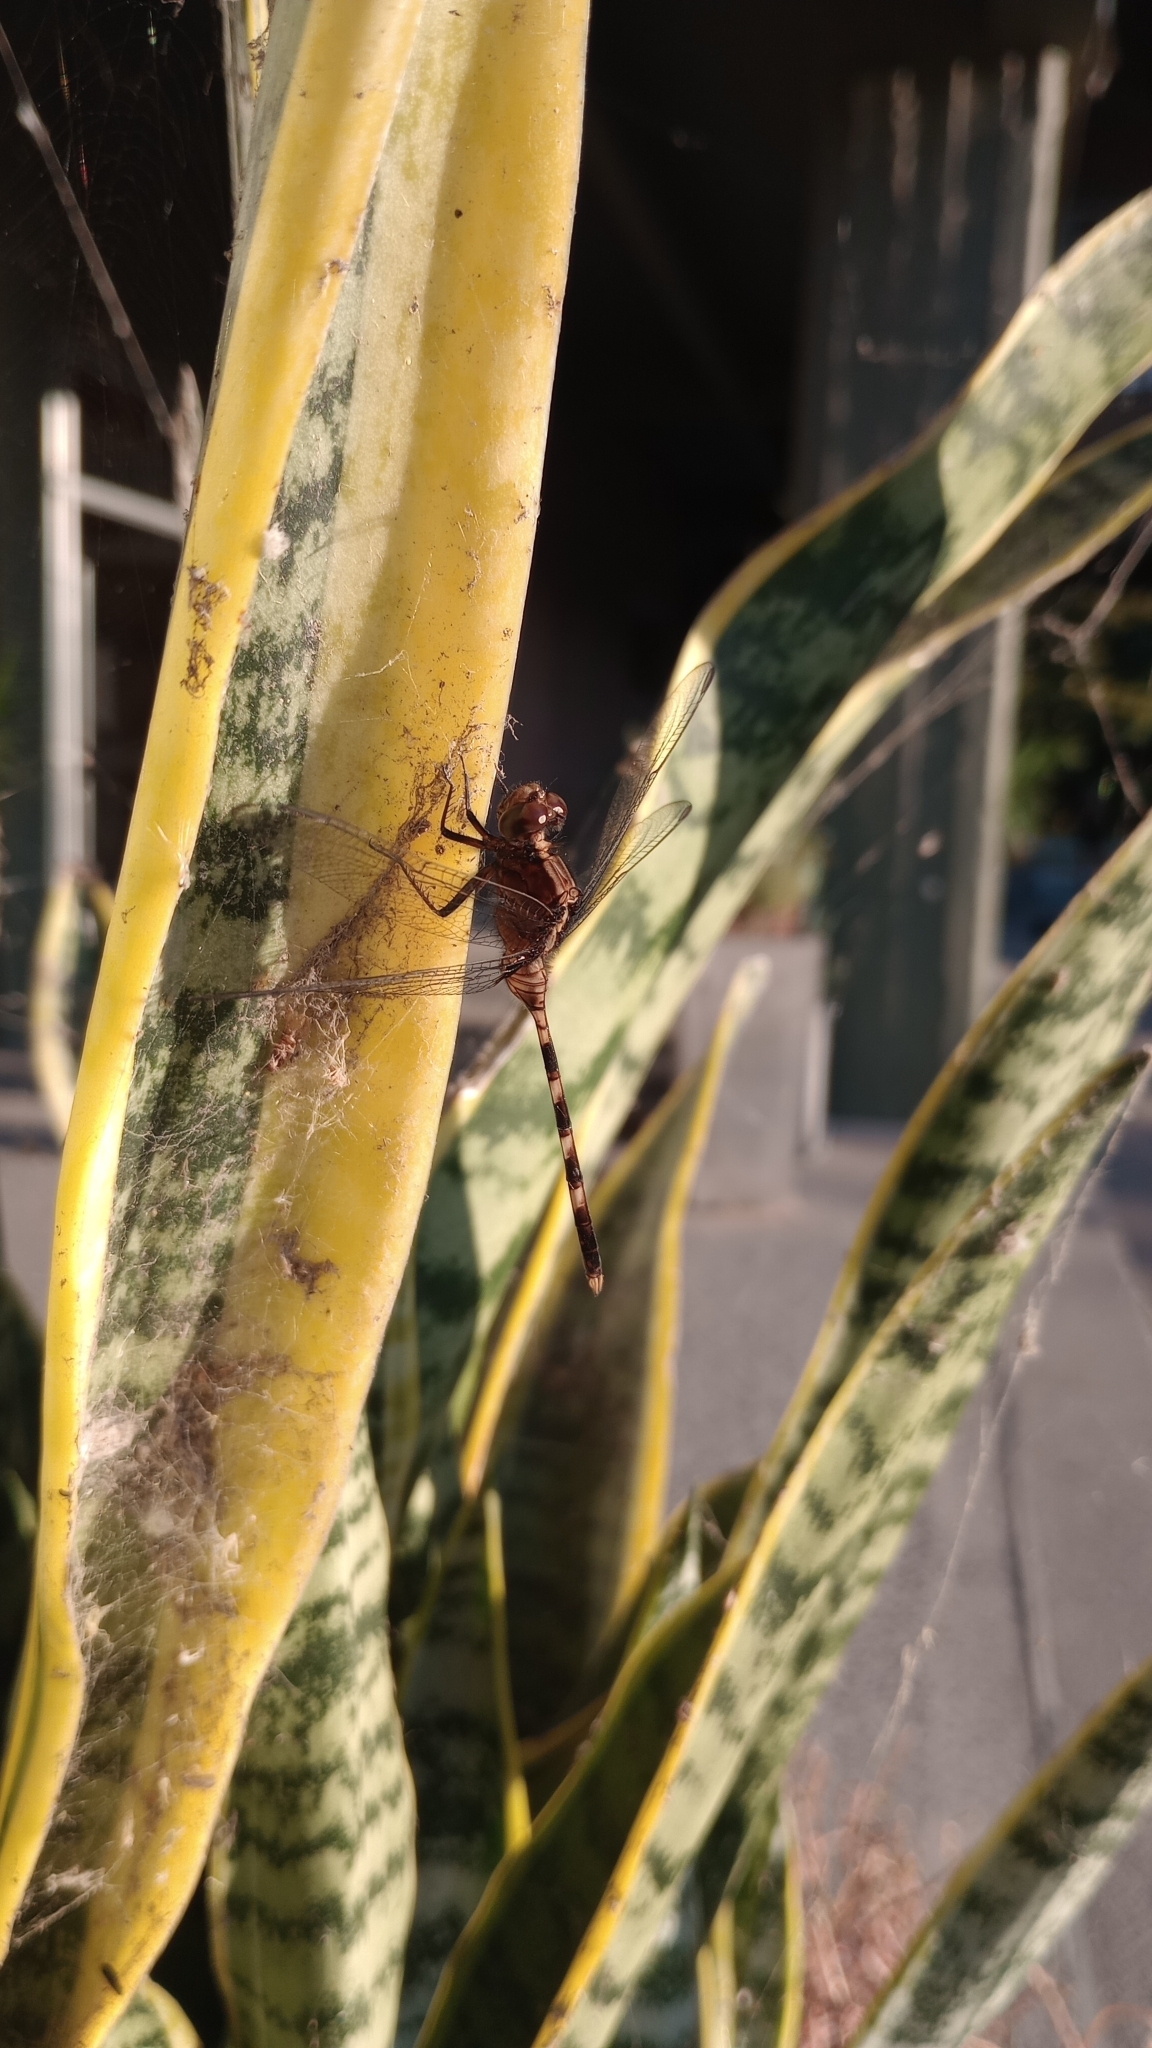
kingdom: Animalia
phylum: Arthropoda
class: Insecta
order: Odonata
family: Libellulidae
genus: Erythemis
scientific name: Erythemis plebeja
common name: Pin-tailed pondhawk
